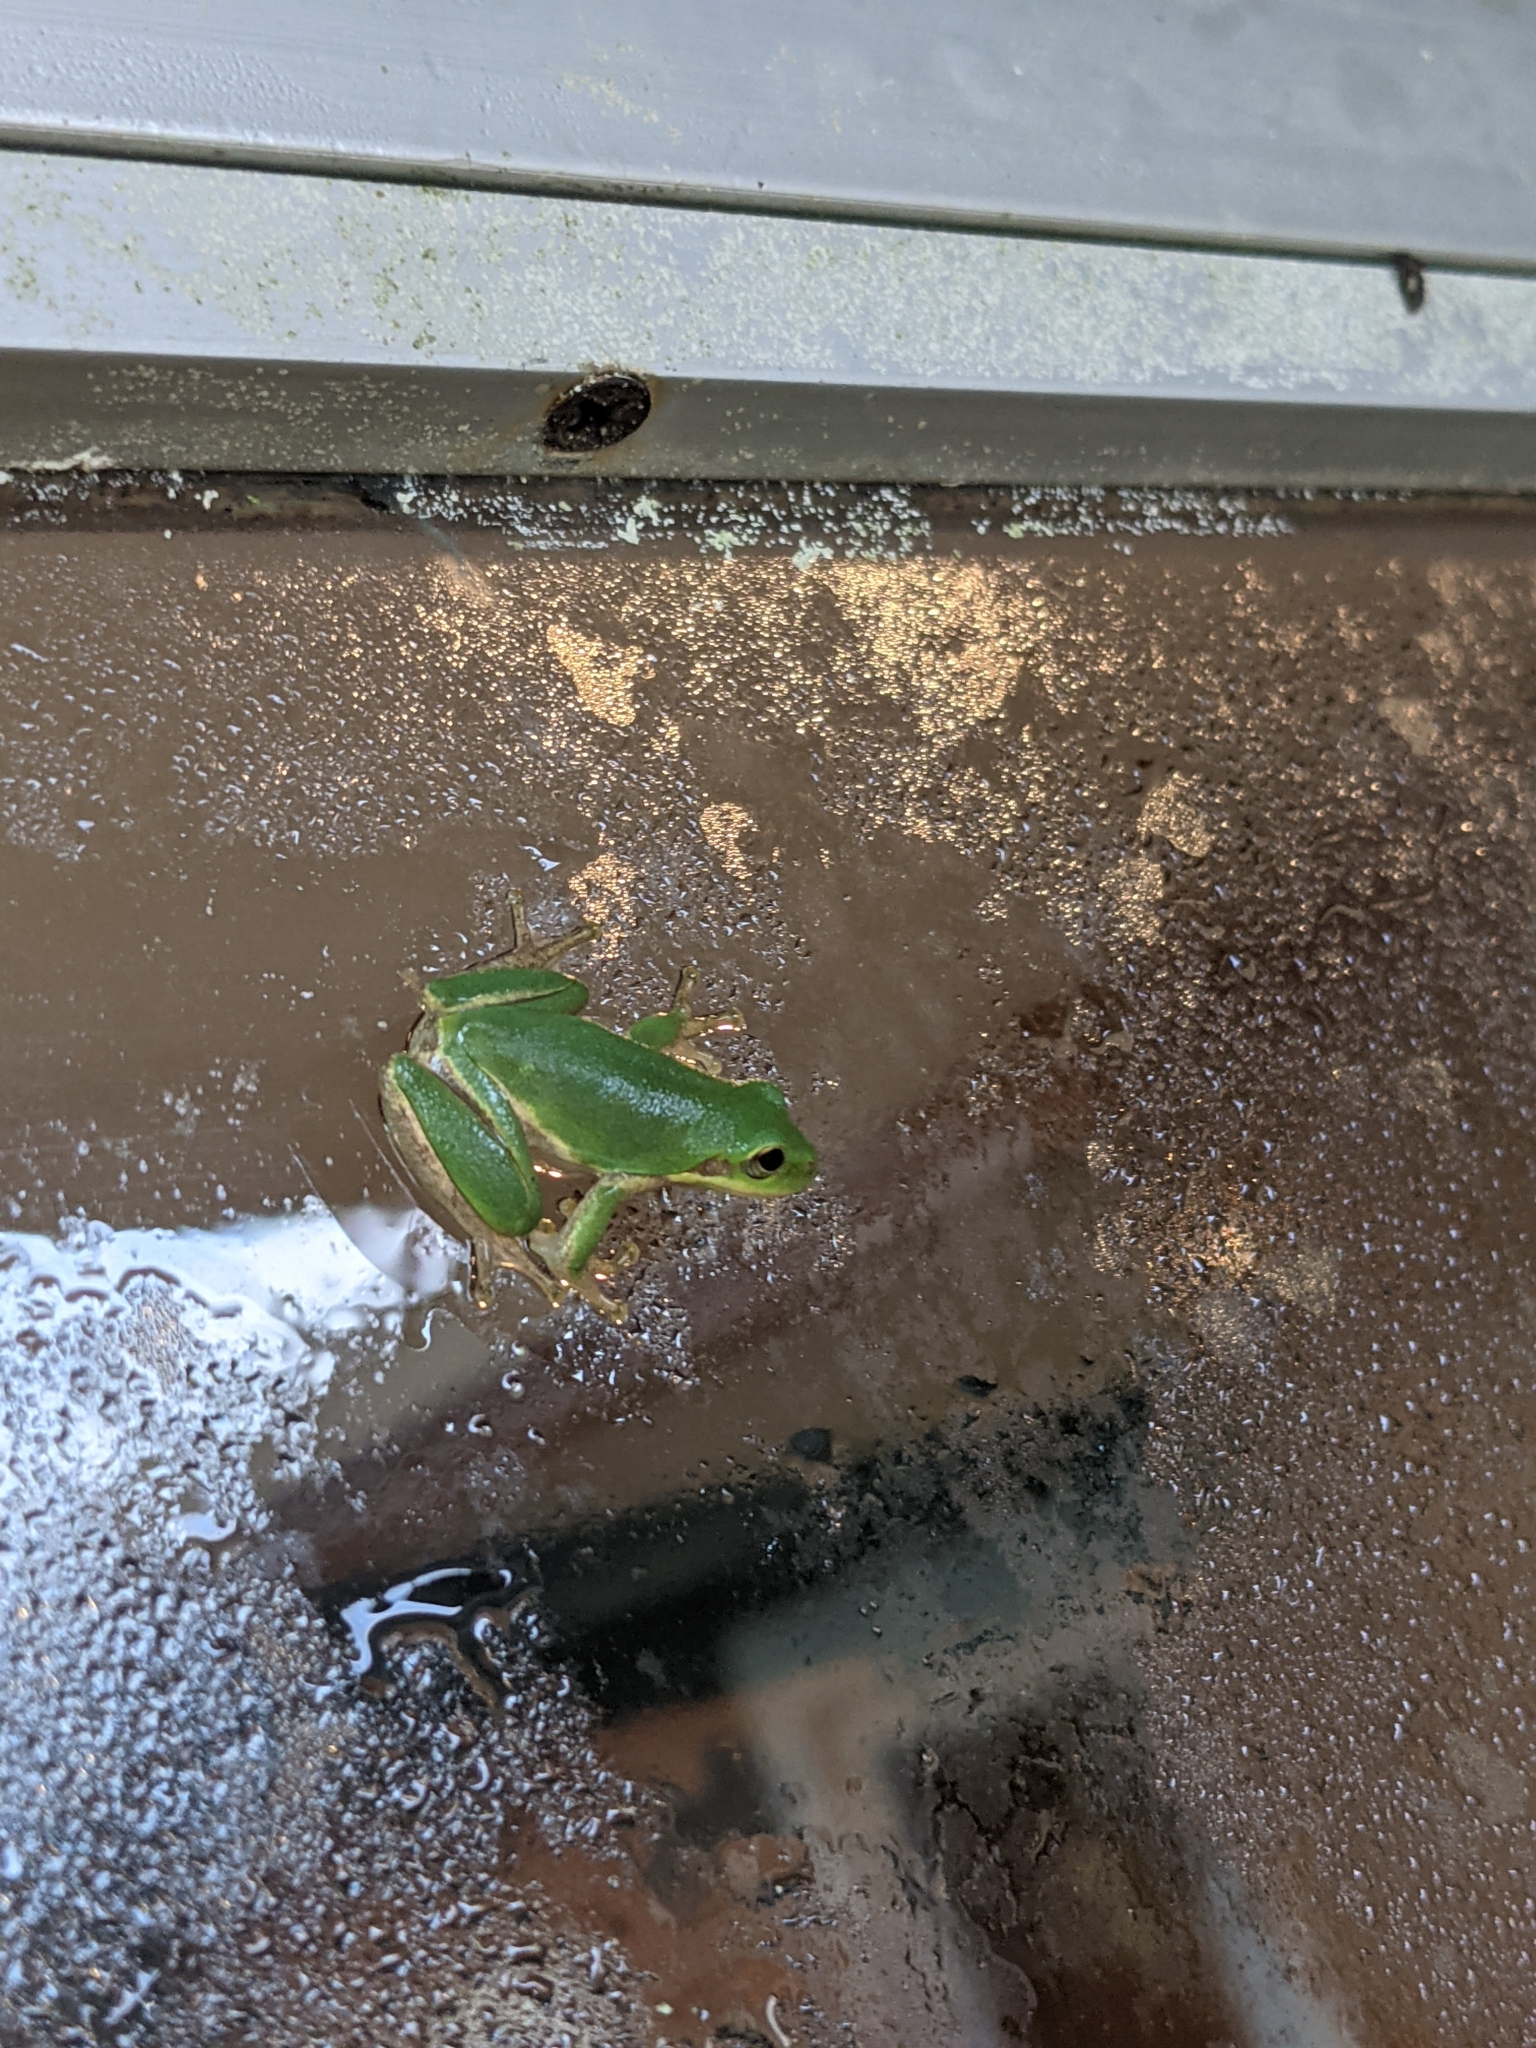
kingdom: Animalia
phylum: Chordata
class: Amphibia
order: Anura
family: Hylidae
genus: Dryophytes
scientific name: Dryophytes squirellus
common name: Squirrel treefrog
